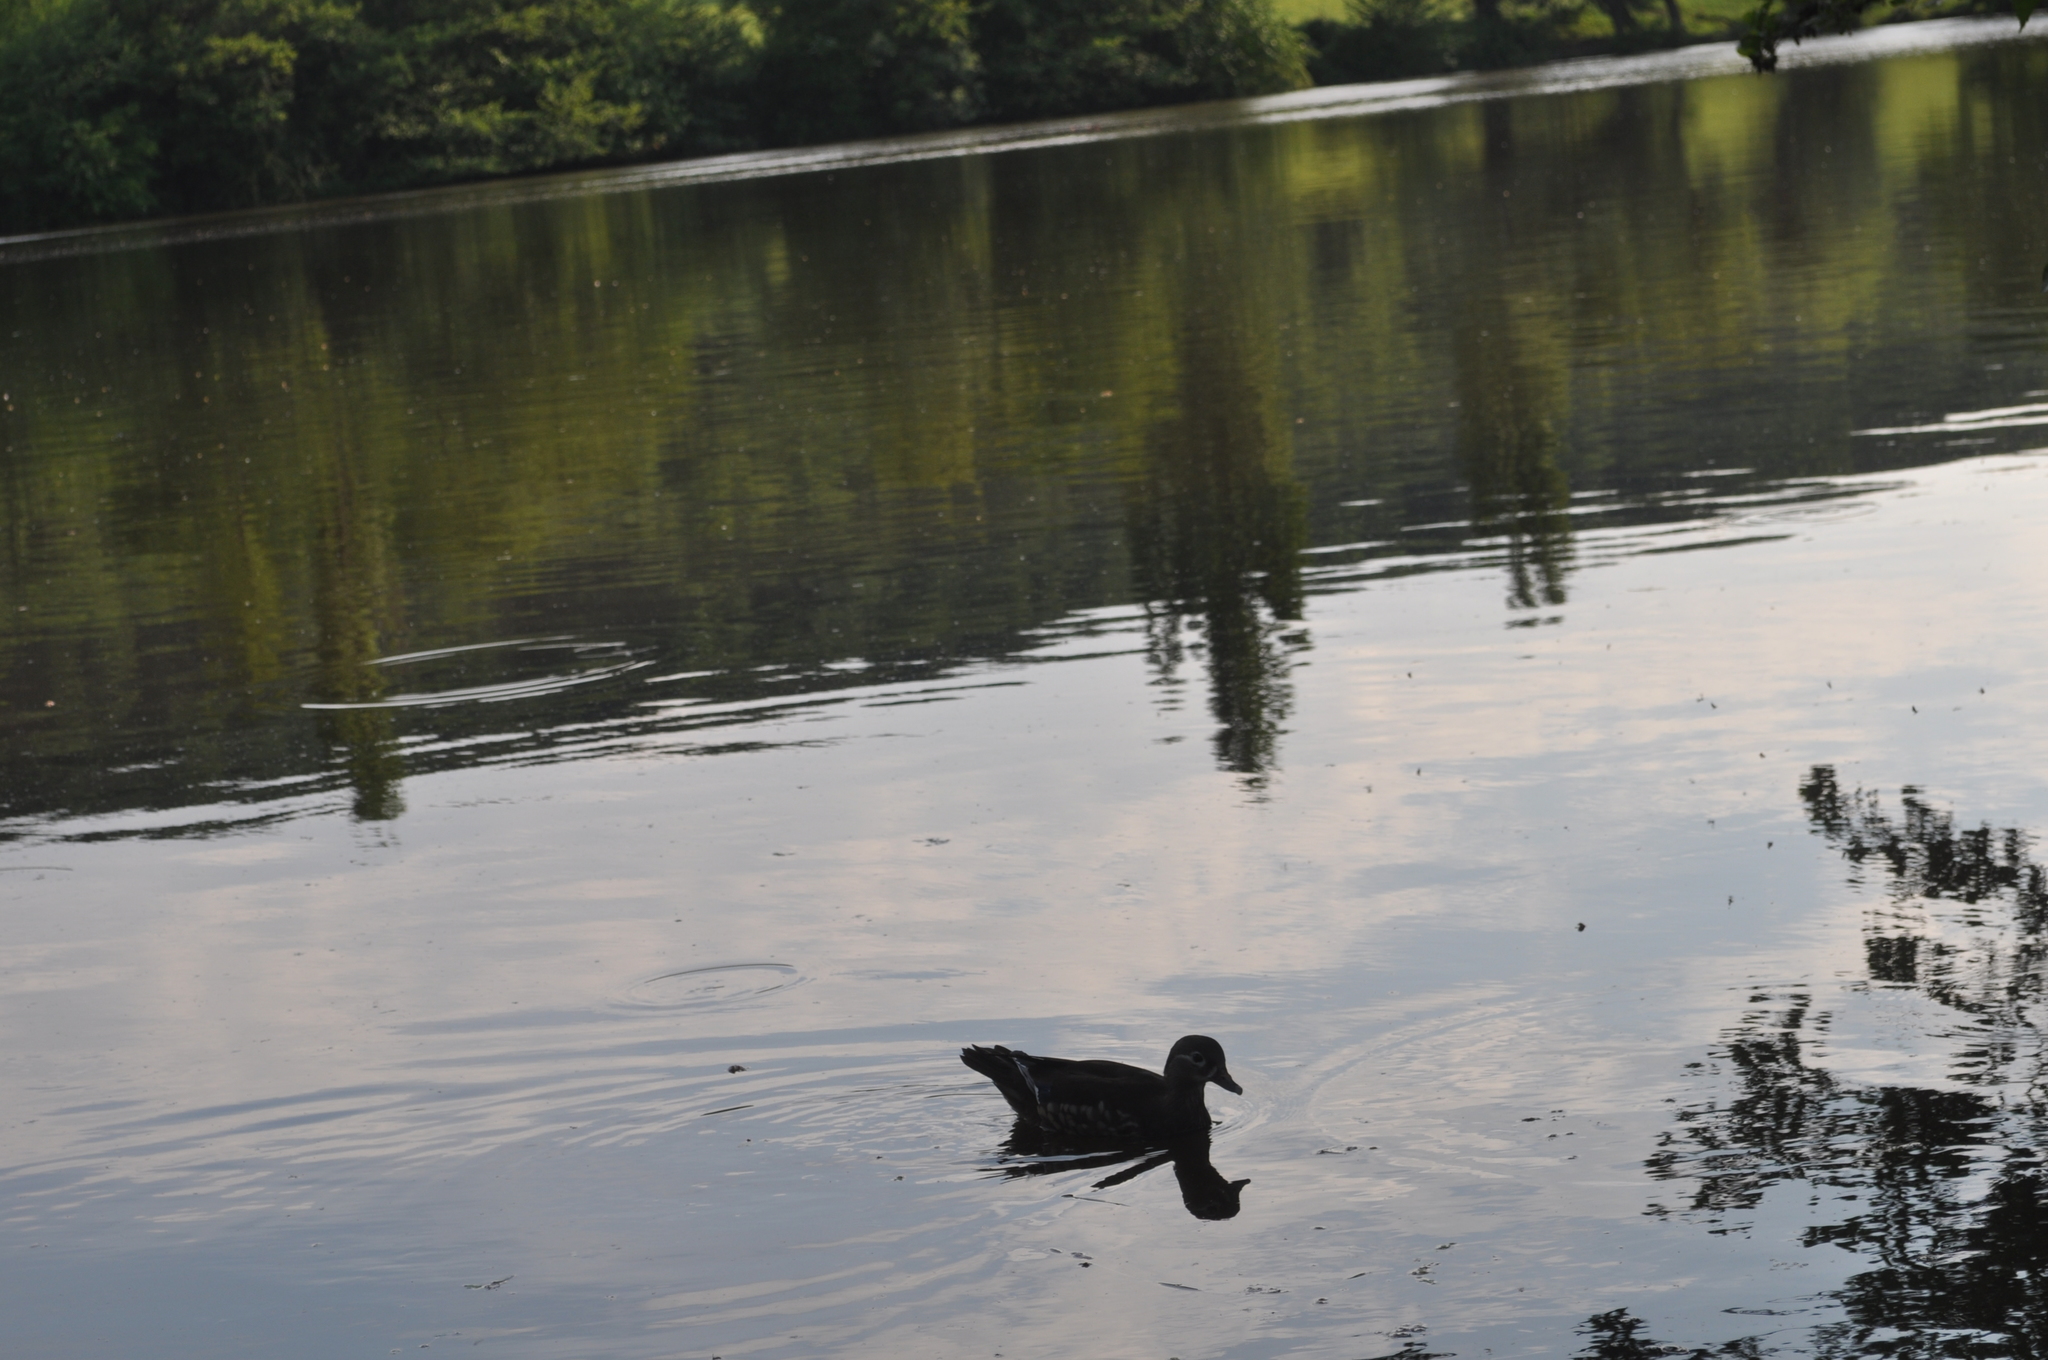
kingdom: Animalia
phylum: Chordata
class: Aves
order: Anseriformes
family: Anatidae
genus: Aix
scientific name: Aix galericulata
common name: Mandarin duck
